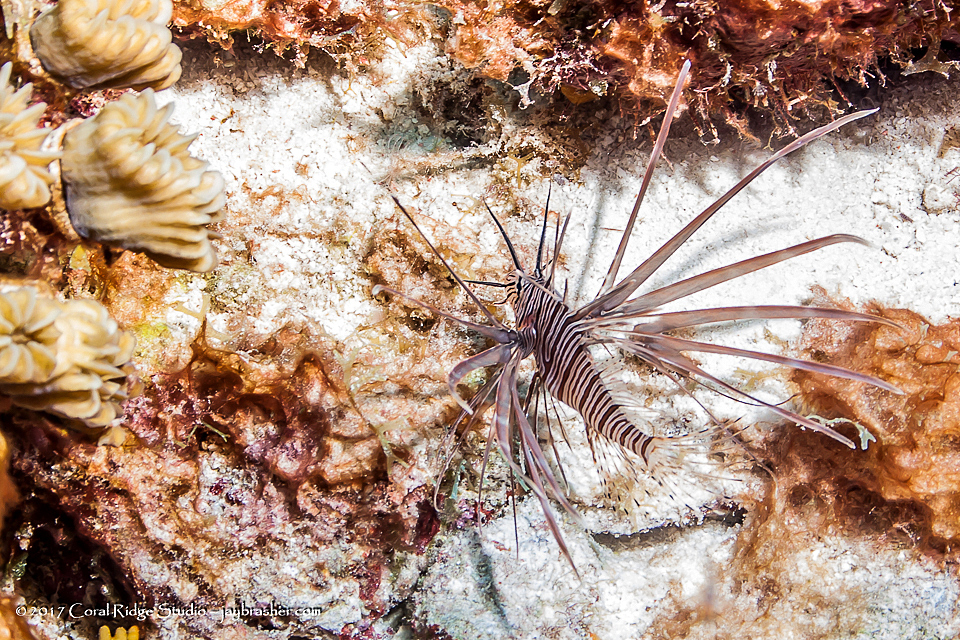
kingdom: Animalia
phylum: Chordata
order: Scorpaeniformes
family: Scorpaenidae
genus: Pterois
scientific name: Pterois volitans
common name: Lionfish
